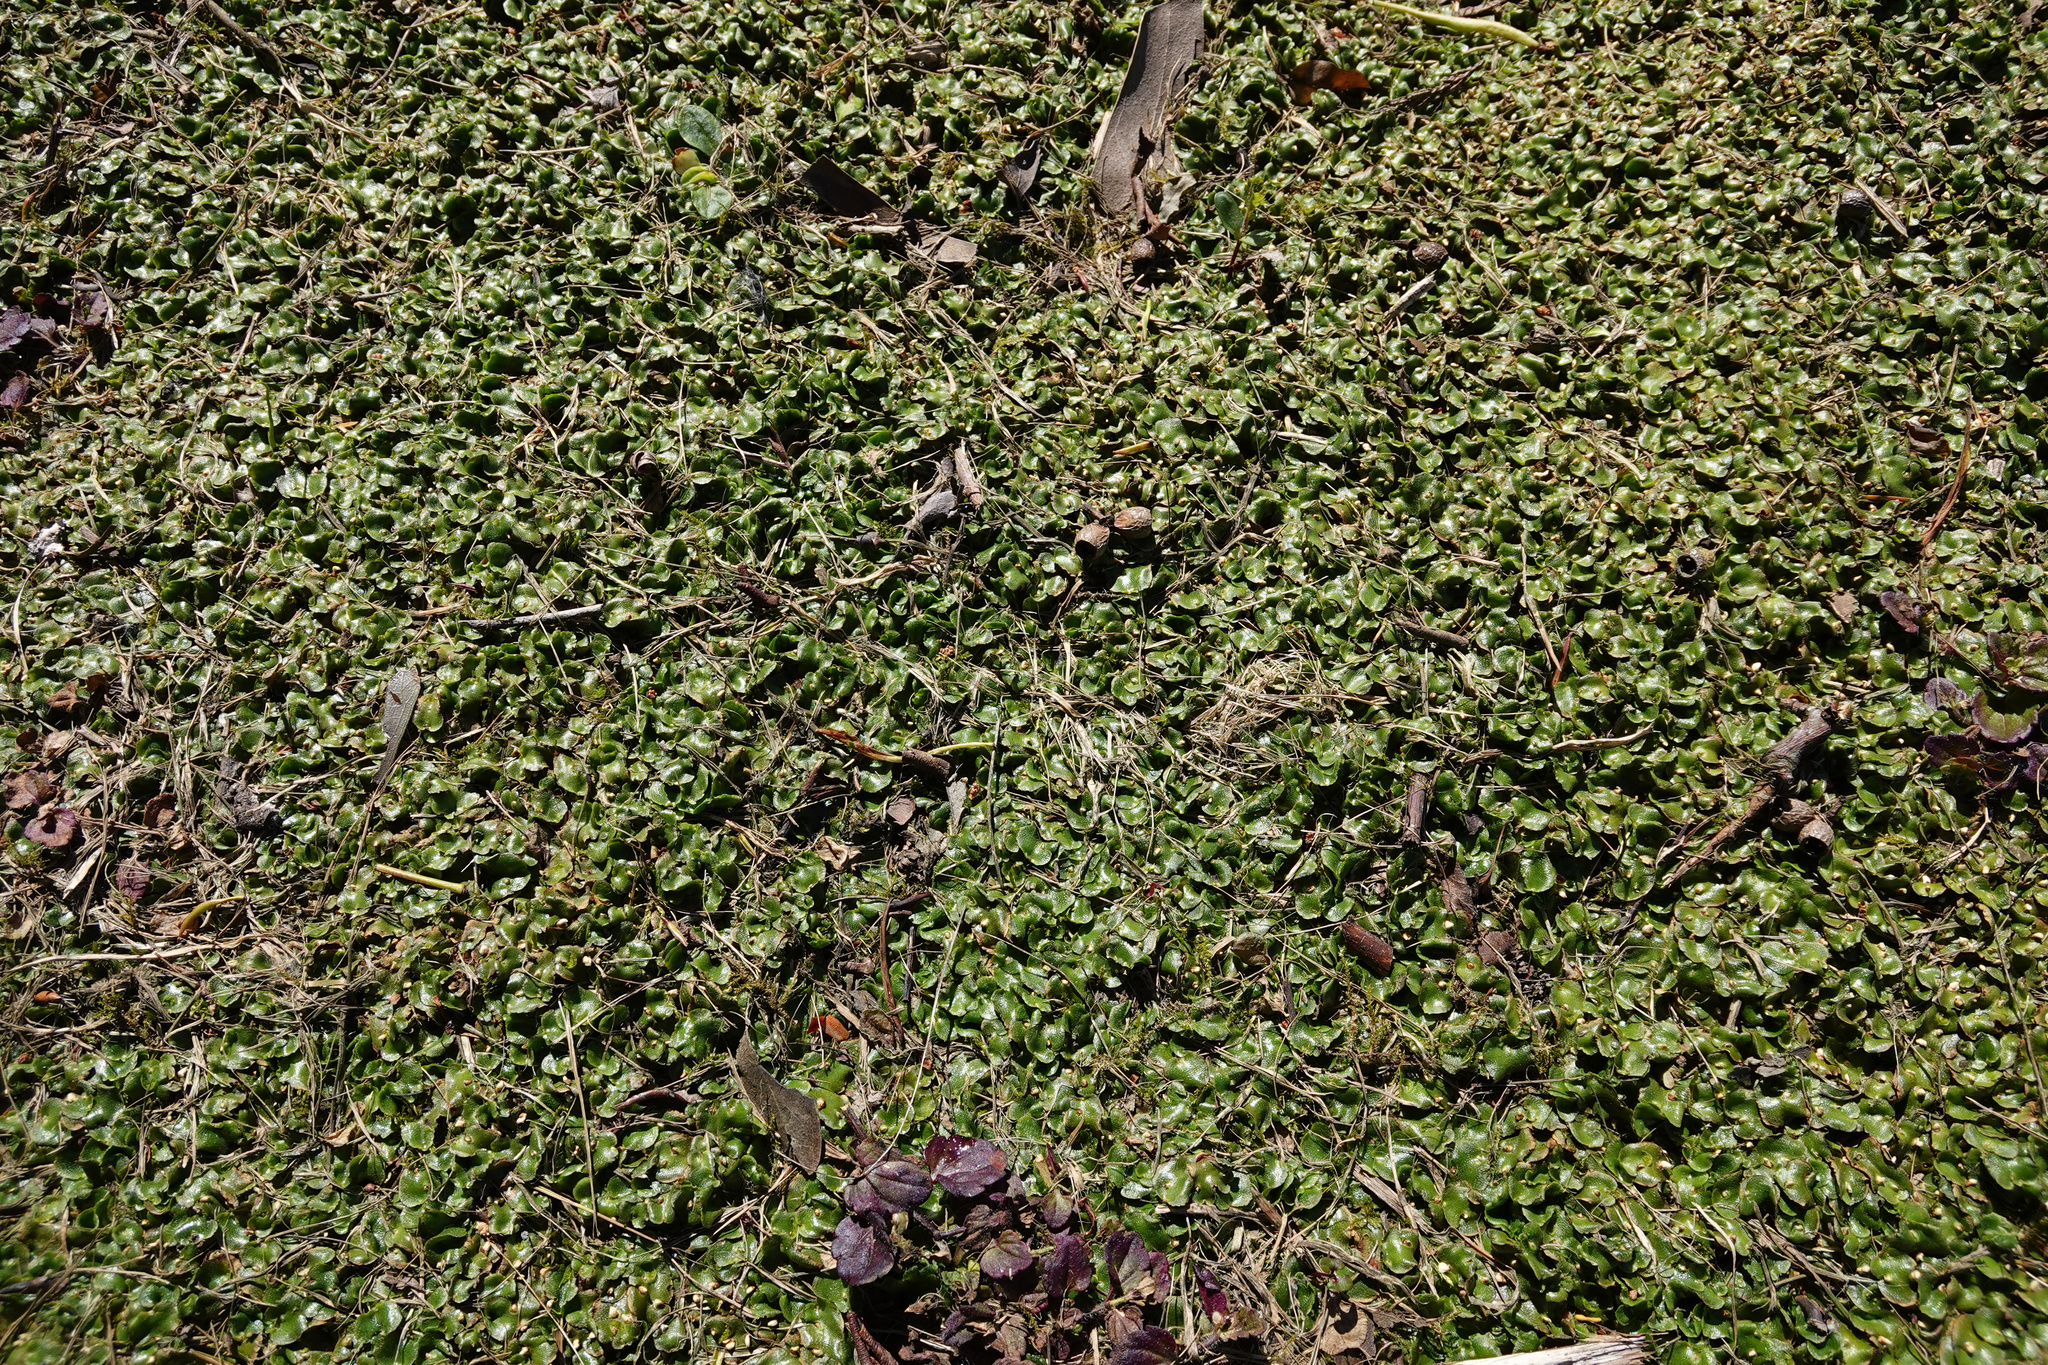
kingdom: Plantae
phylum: Marchantiophyta
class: Marchantiopsida
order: Lunulariales
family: Lunulariaceae
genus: Lunularia
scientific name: Lunularia cruciata
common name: Crescent-cup liverwort
